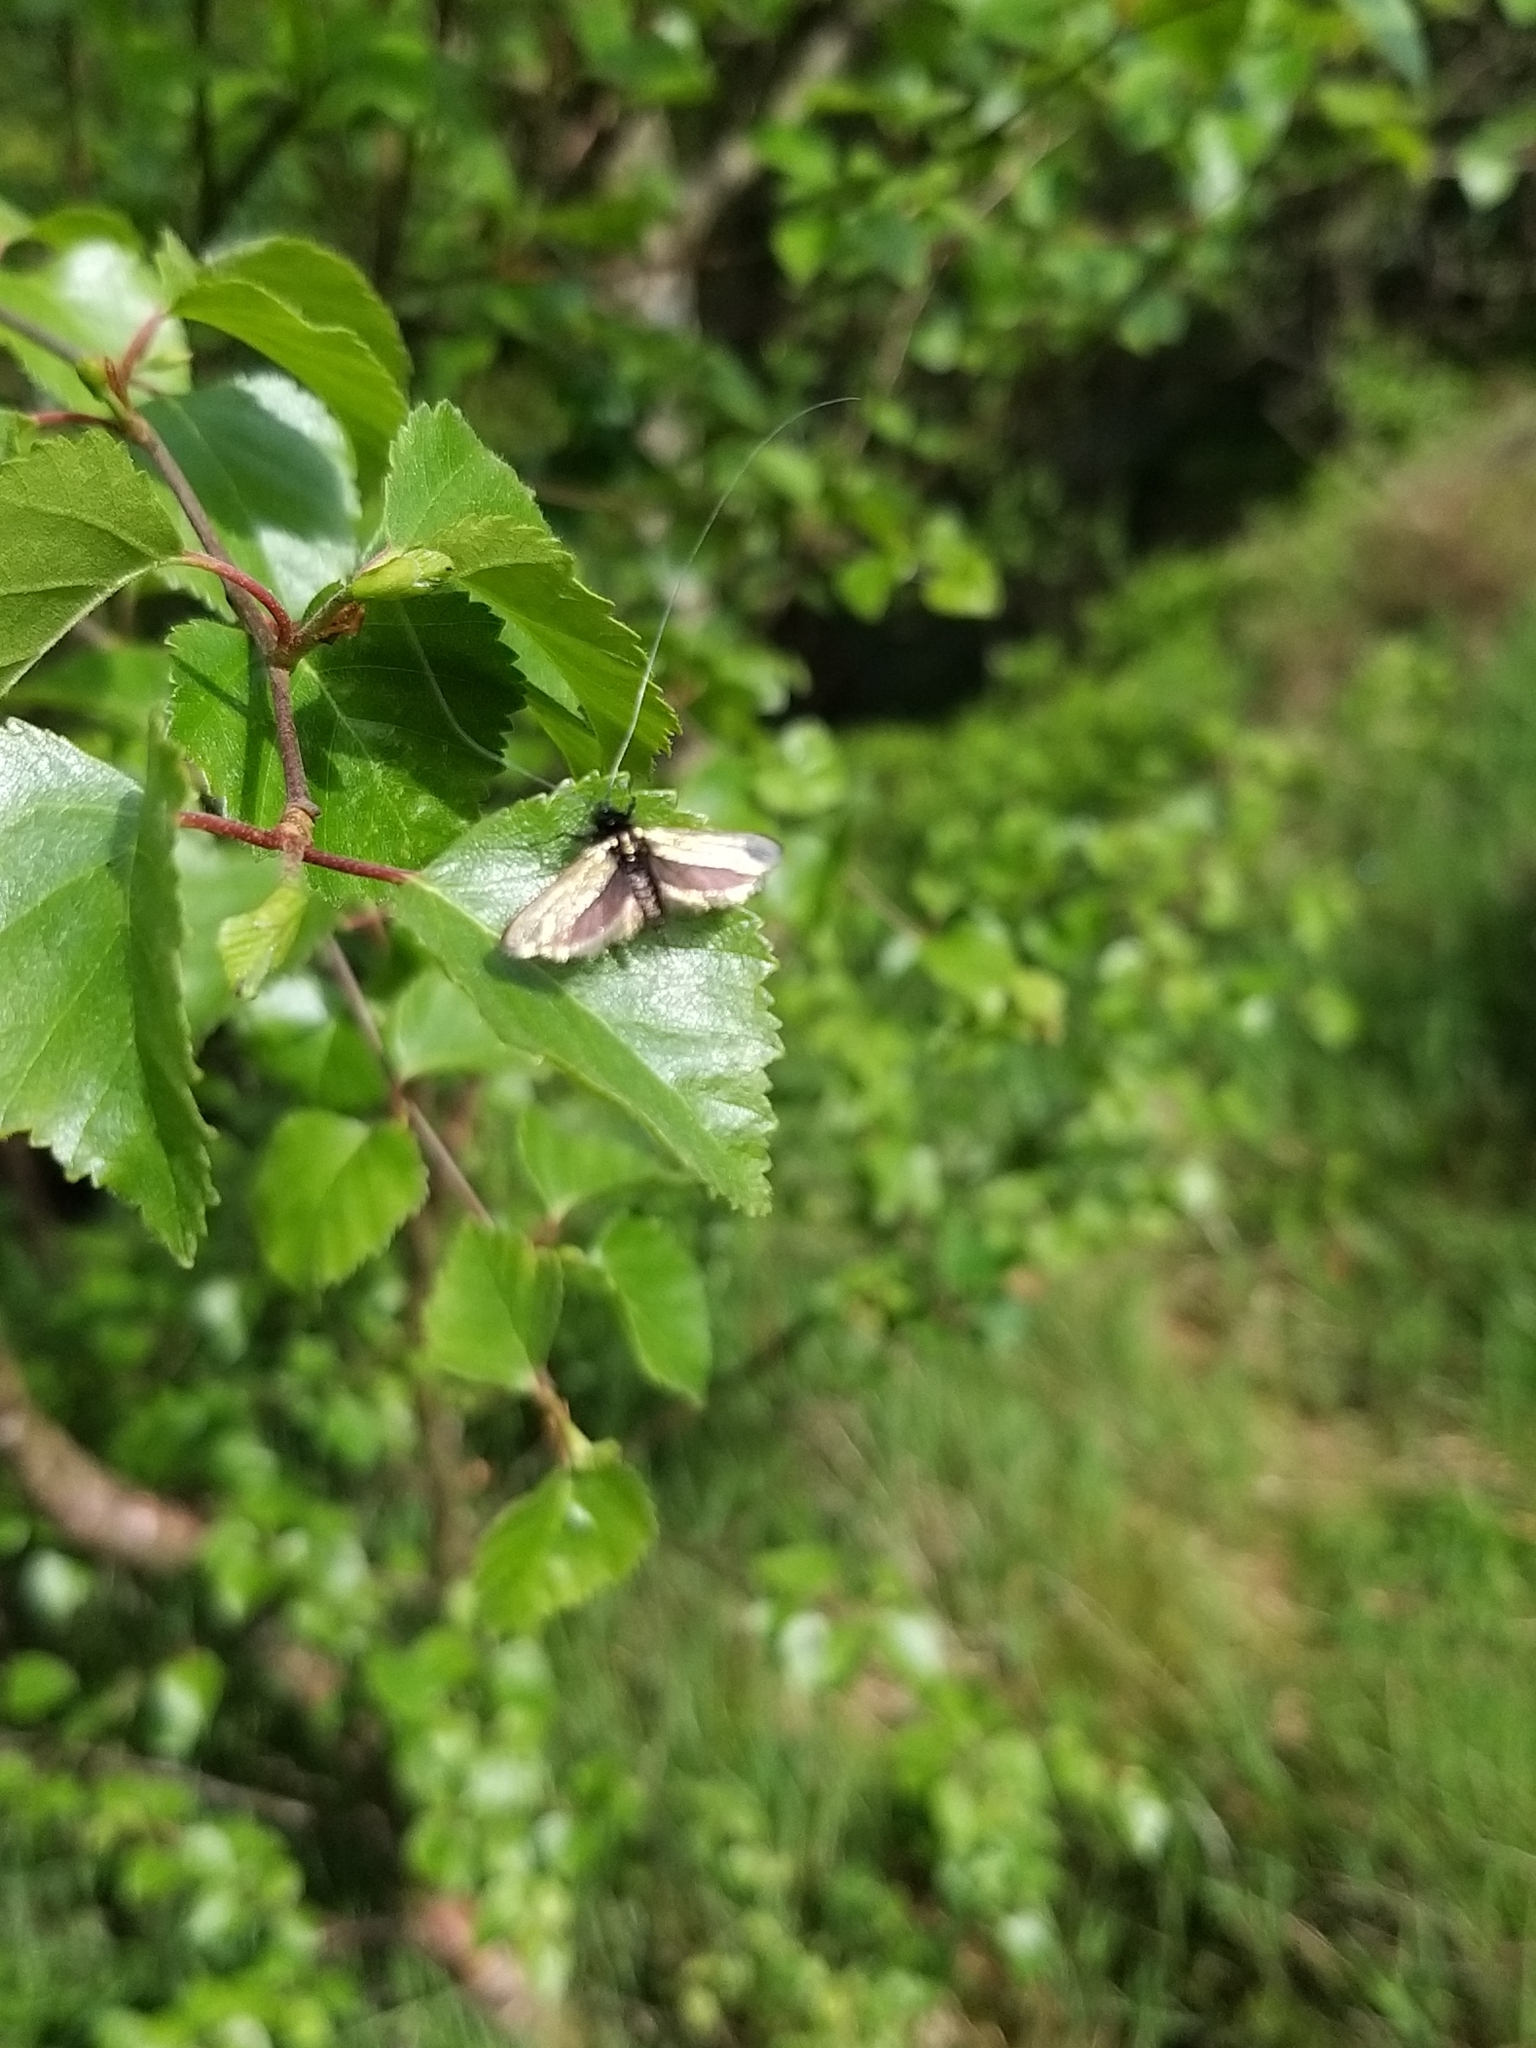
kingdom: Animalia
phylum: Arthropoda
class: Insecta
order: Lepidoptera
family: Adelidae
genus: Adela
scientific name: Adela viridella
